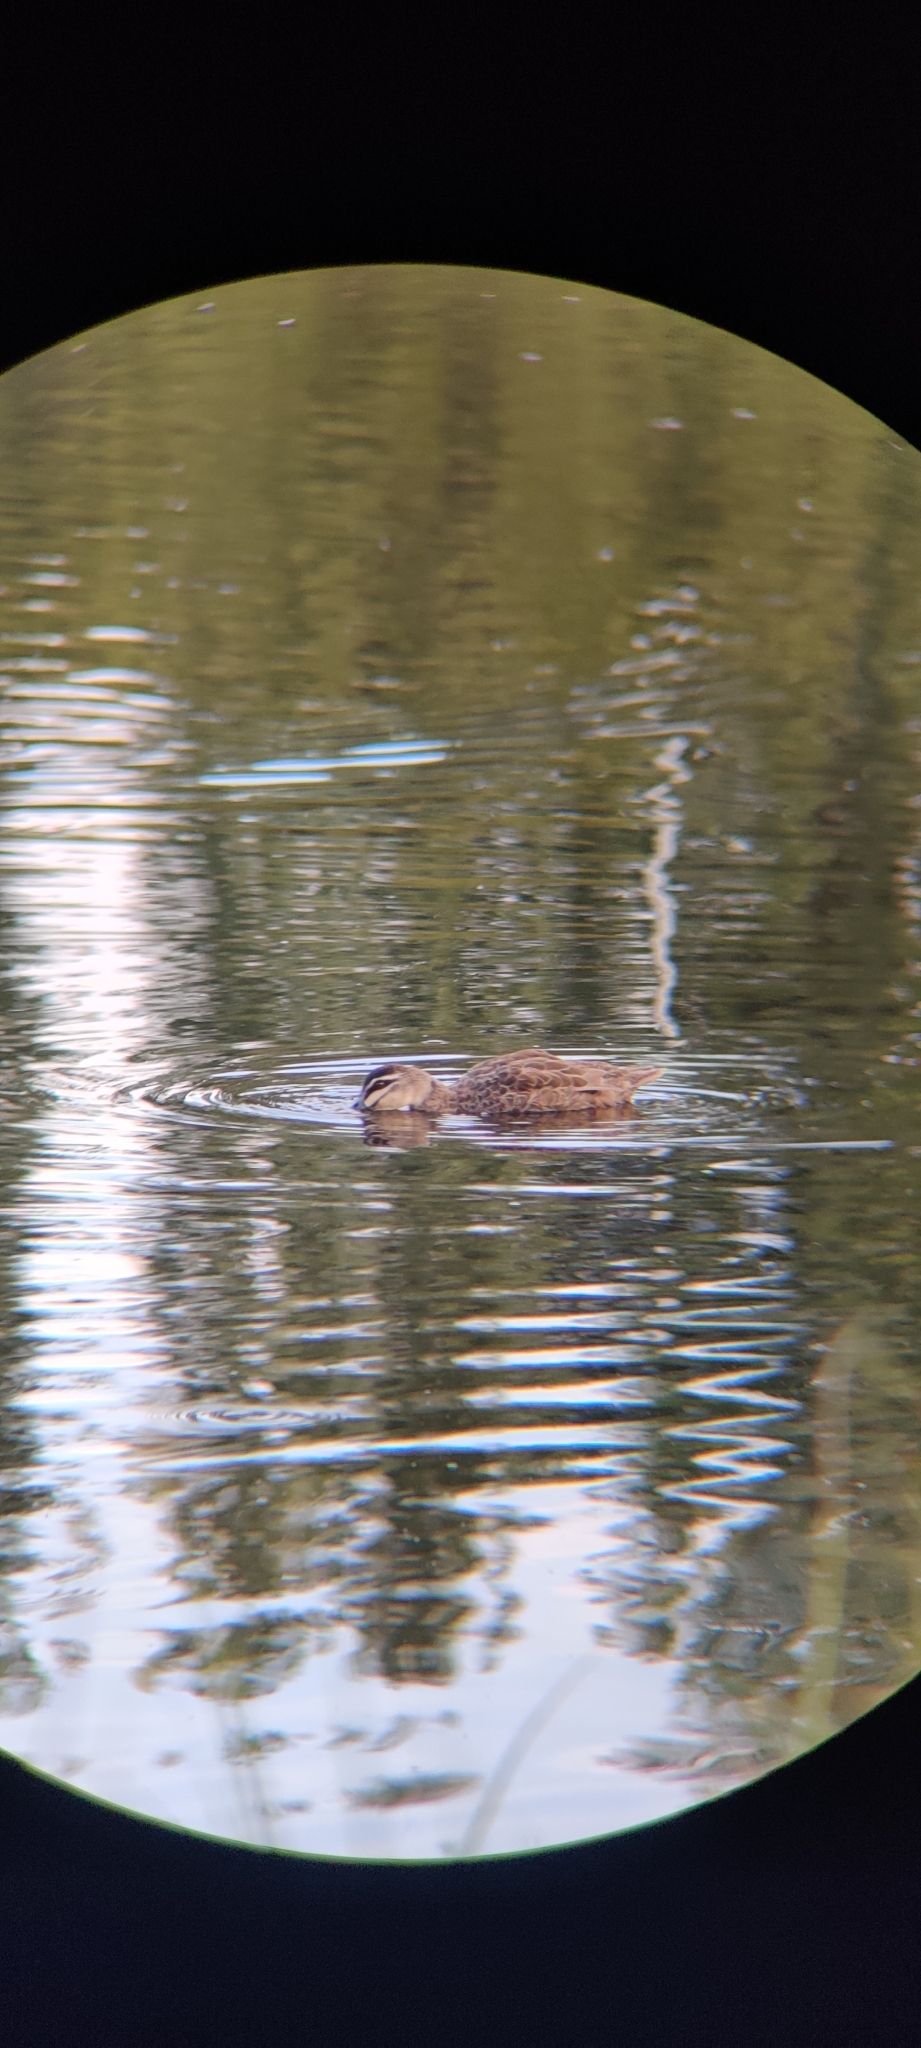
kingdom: Animalia
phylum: Chordata
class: Aves
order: Anseriformes
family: Anatidae
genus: Anas
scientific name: Anas superciliosa
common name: Pacific black duck
